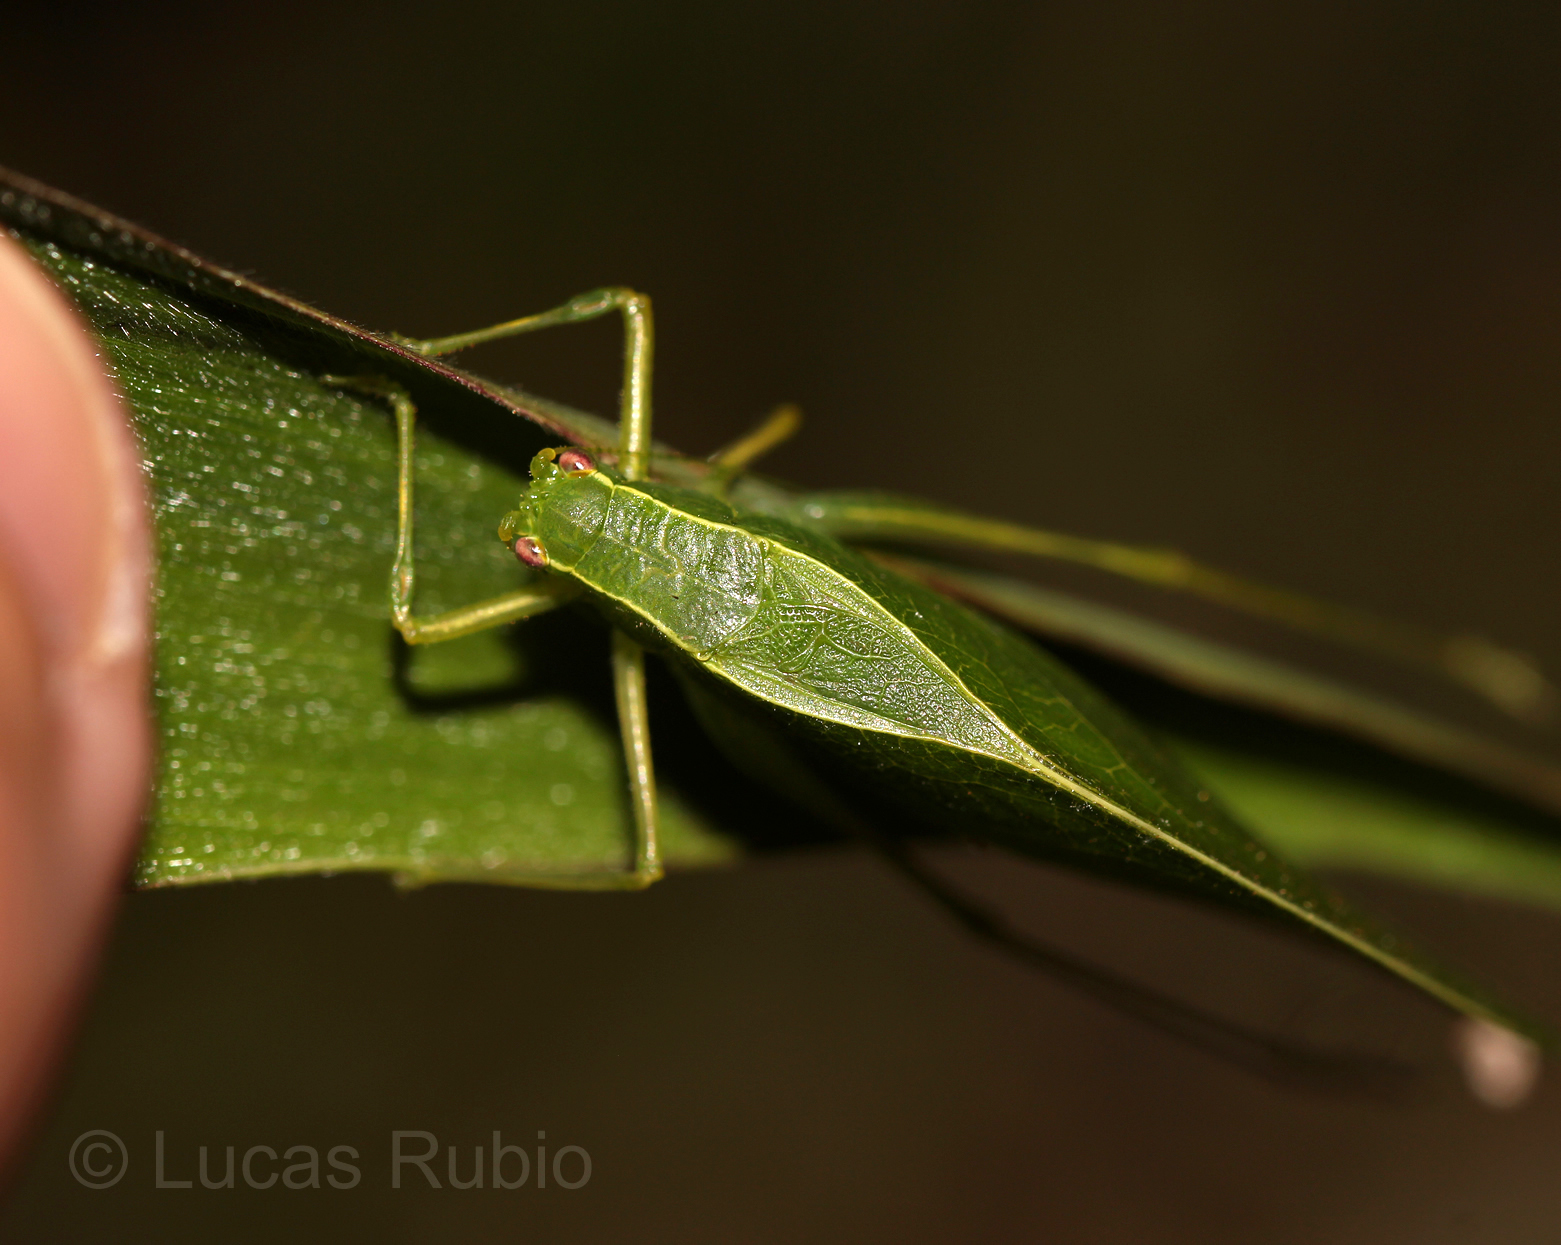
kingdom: Animalia
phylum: Arthropoda
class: Insecta
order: Orthoptera
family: Tettigoniidae
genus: Viadana
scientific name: Viadana piracicabae
